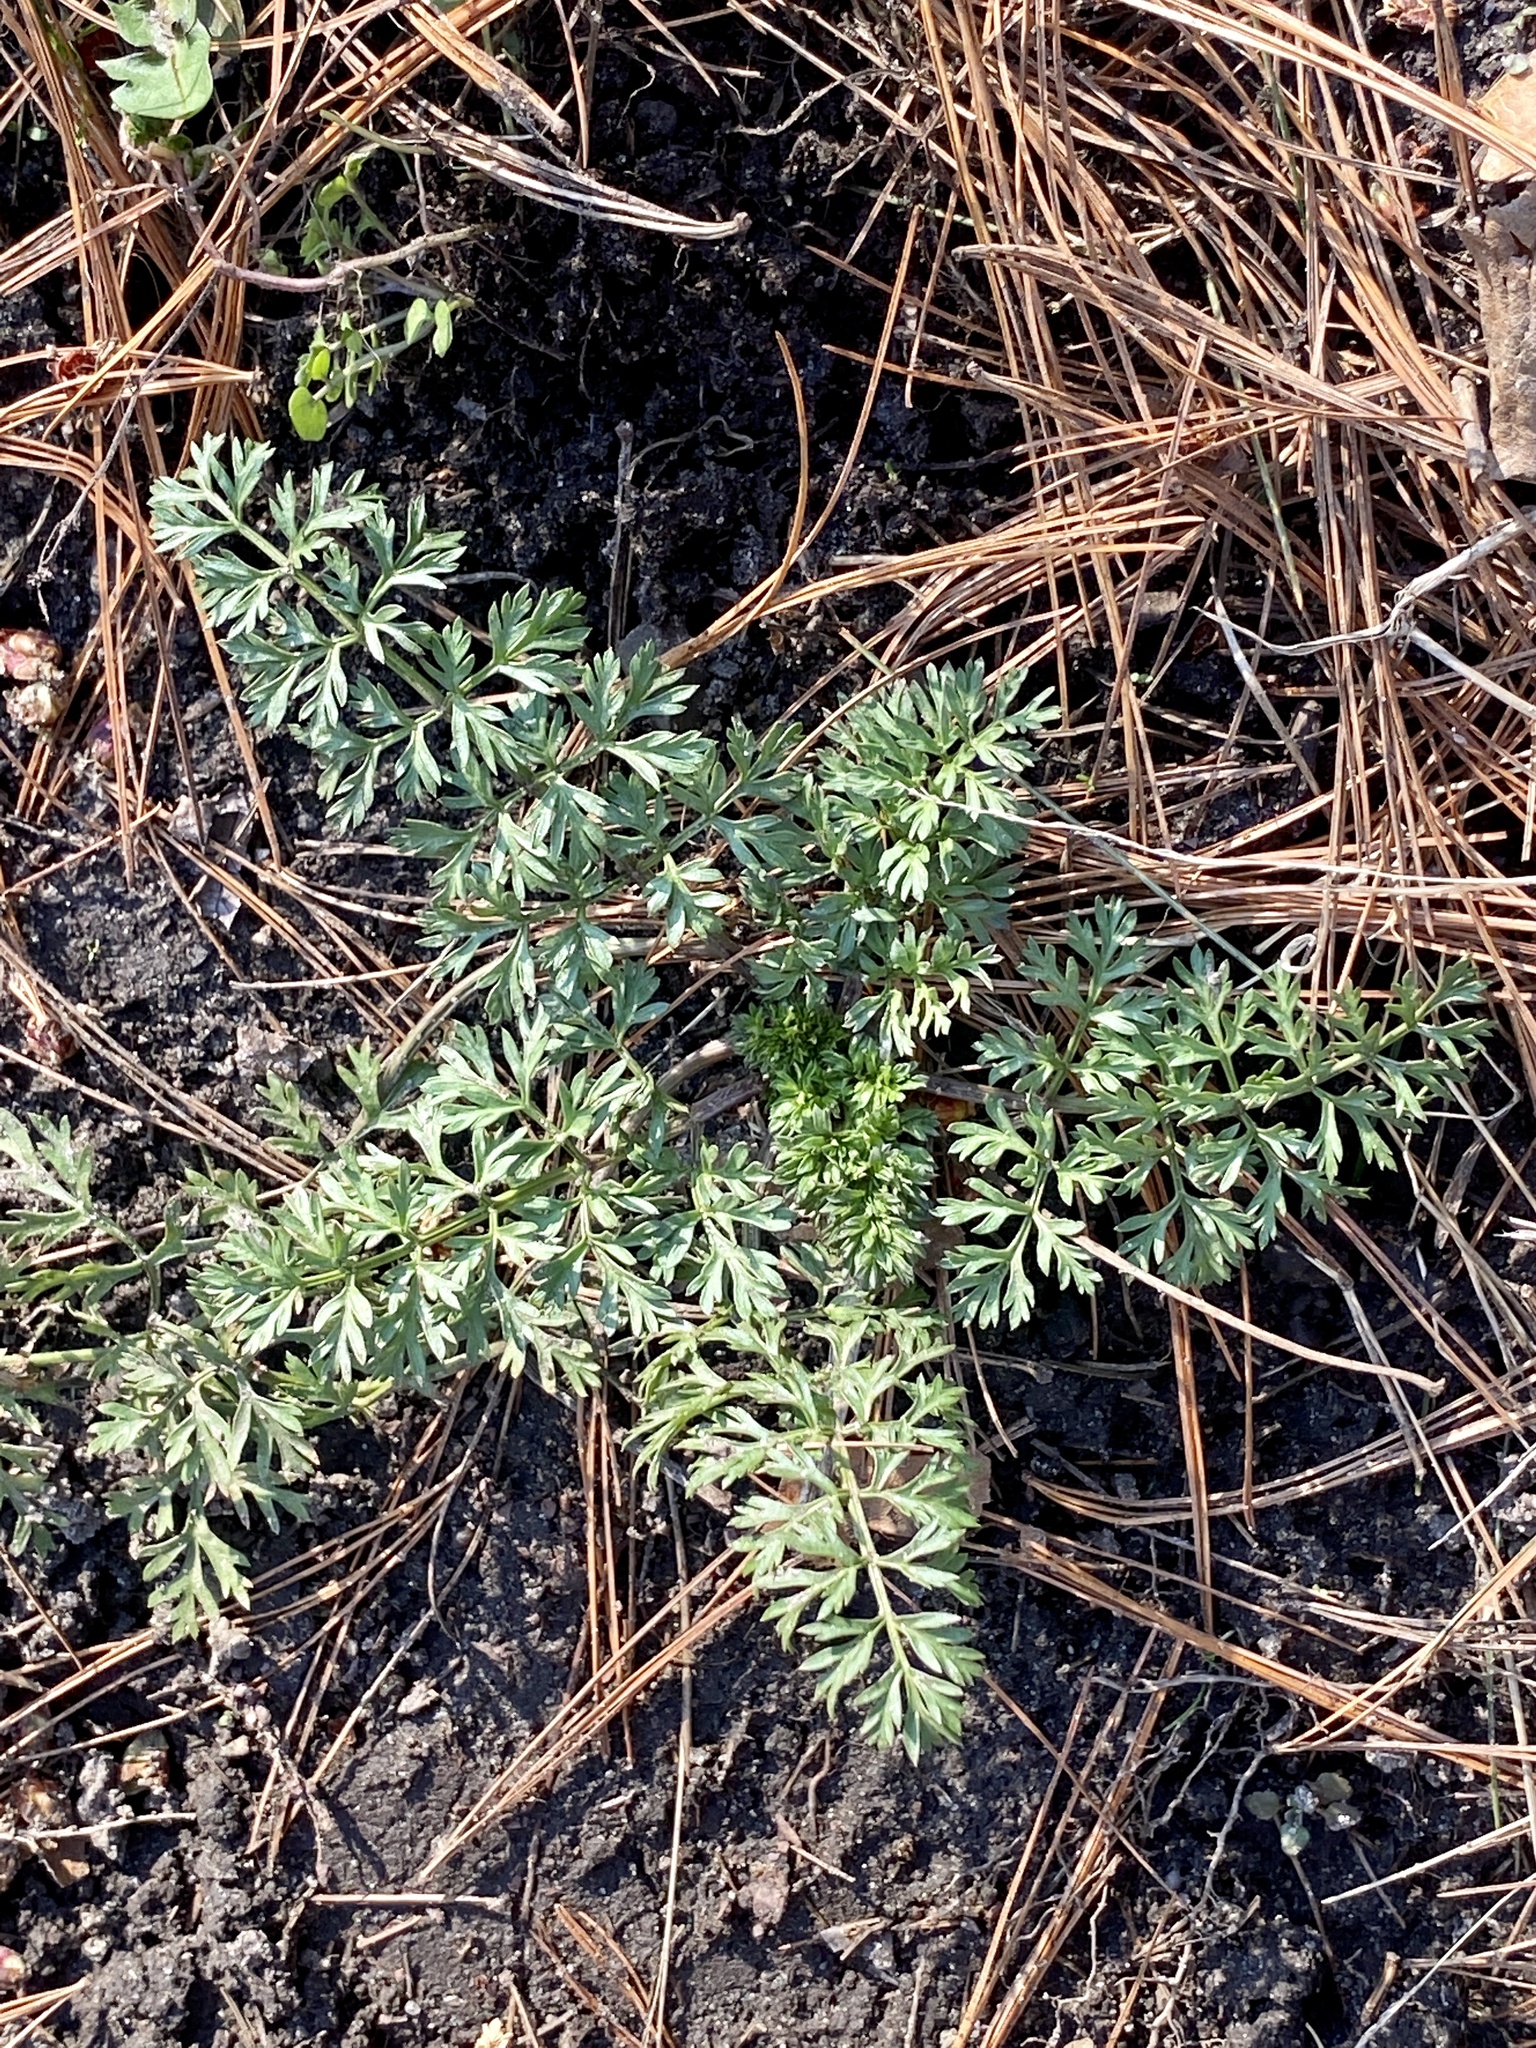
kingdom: Plantae
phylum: Tracheophyta
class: Magnoliopsida
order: Apiales
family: Apiaceae
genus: Daucus
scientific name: Daucus carota
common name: Wild carrot
